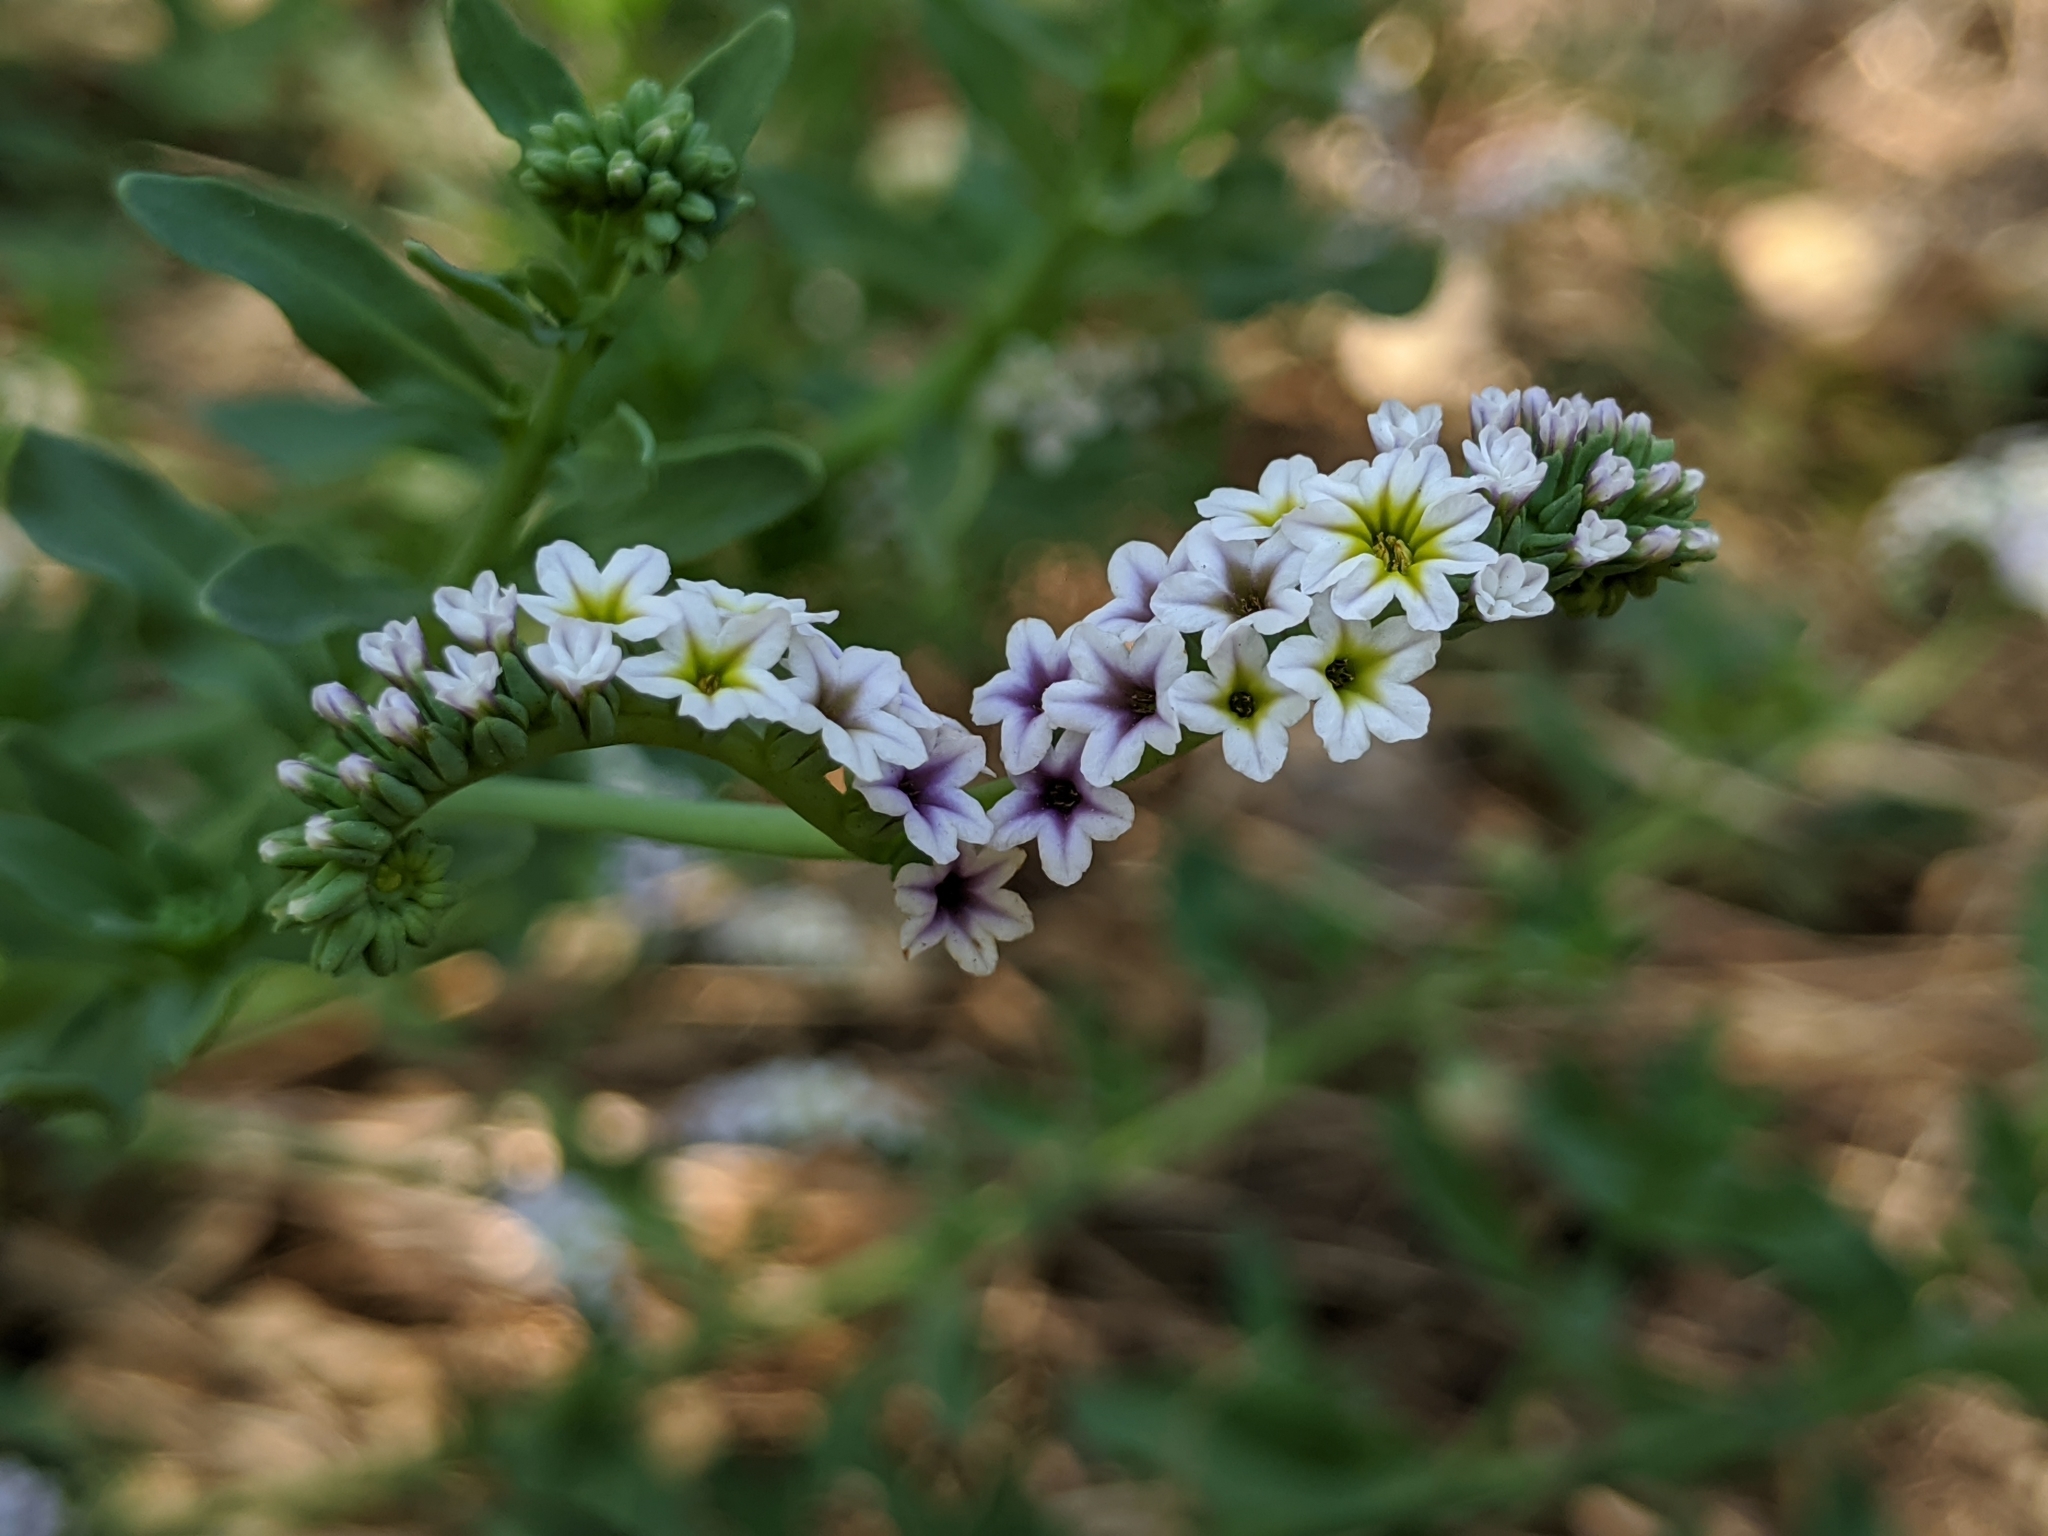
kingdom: Plantae
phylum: Tracheophyta
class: Magnoliopsida
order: Boraginales
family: Heliotropiaceae
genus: Heliotropium
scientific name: Heliotropium curassavicum
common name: Seaside heliotrope
